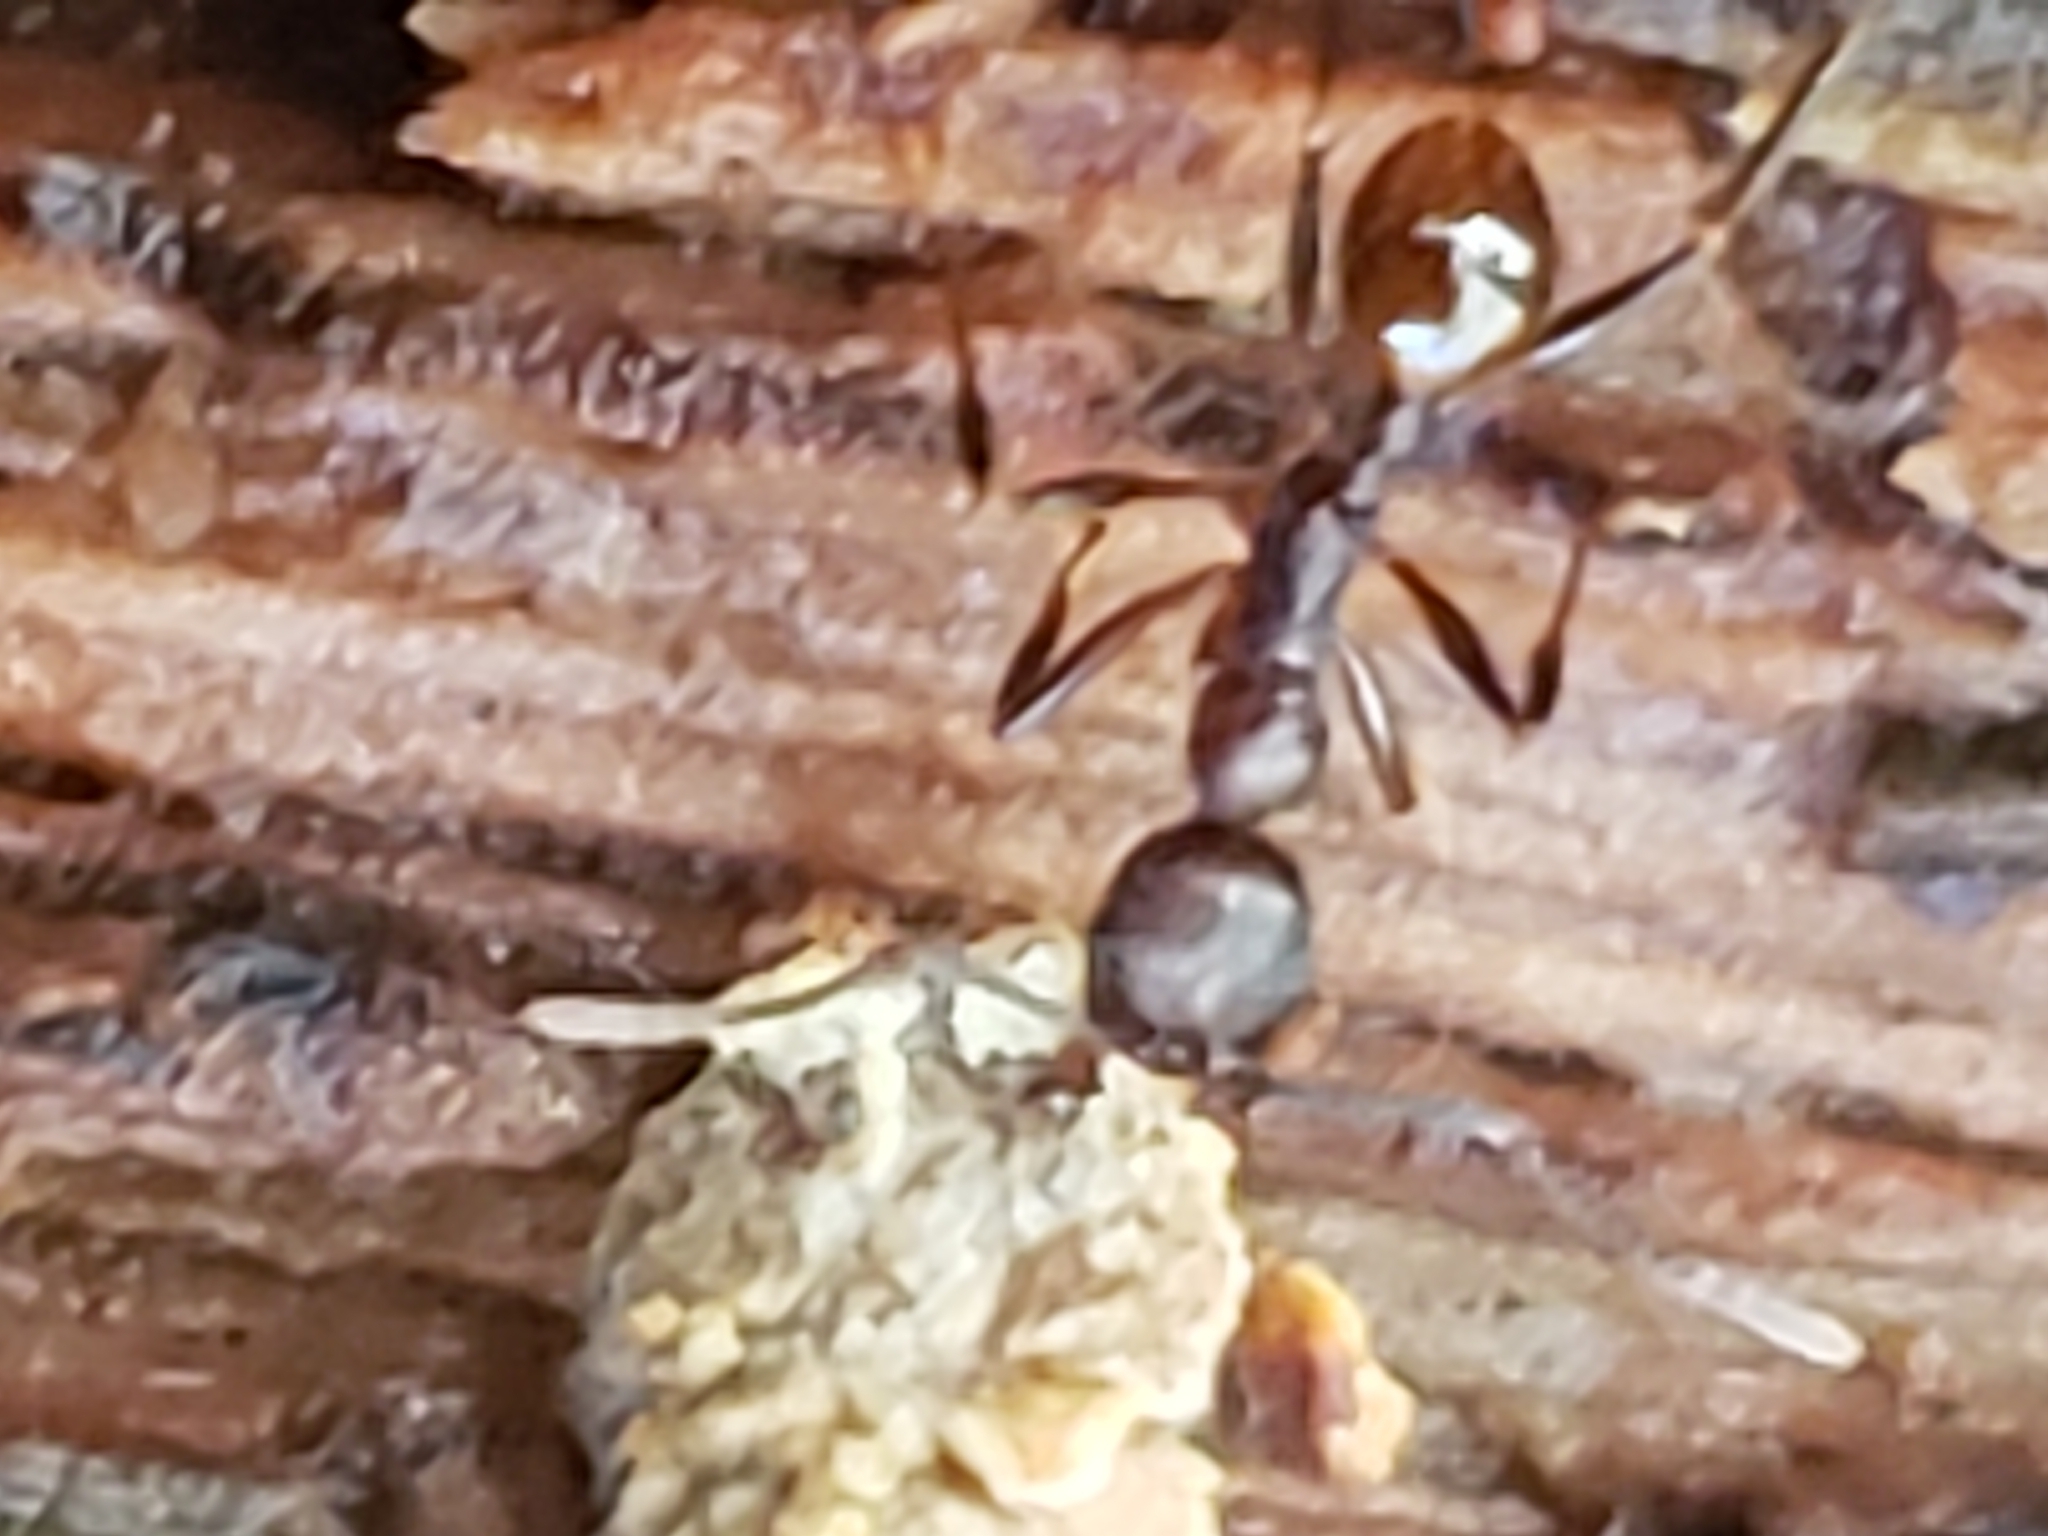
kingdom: Animalia
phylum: Arthropoda
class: Insecta
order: Hymenoptera
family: Formicidae
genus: Aphaenogaster
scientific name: Aphaenogaster fulva
